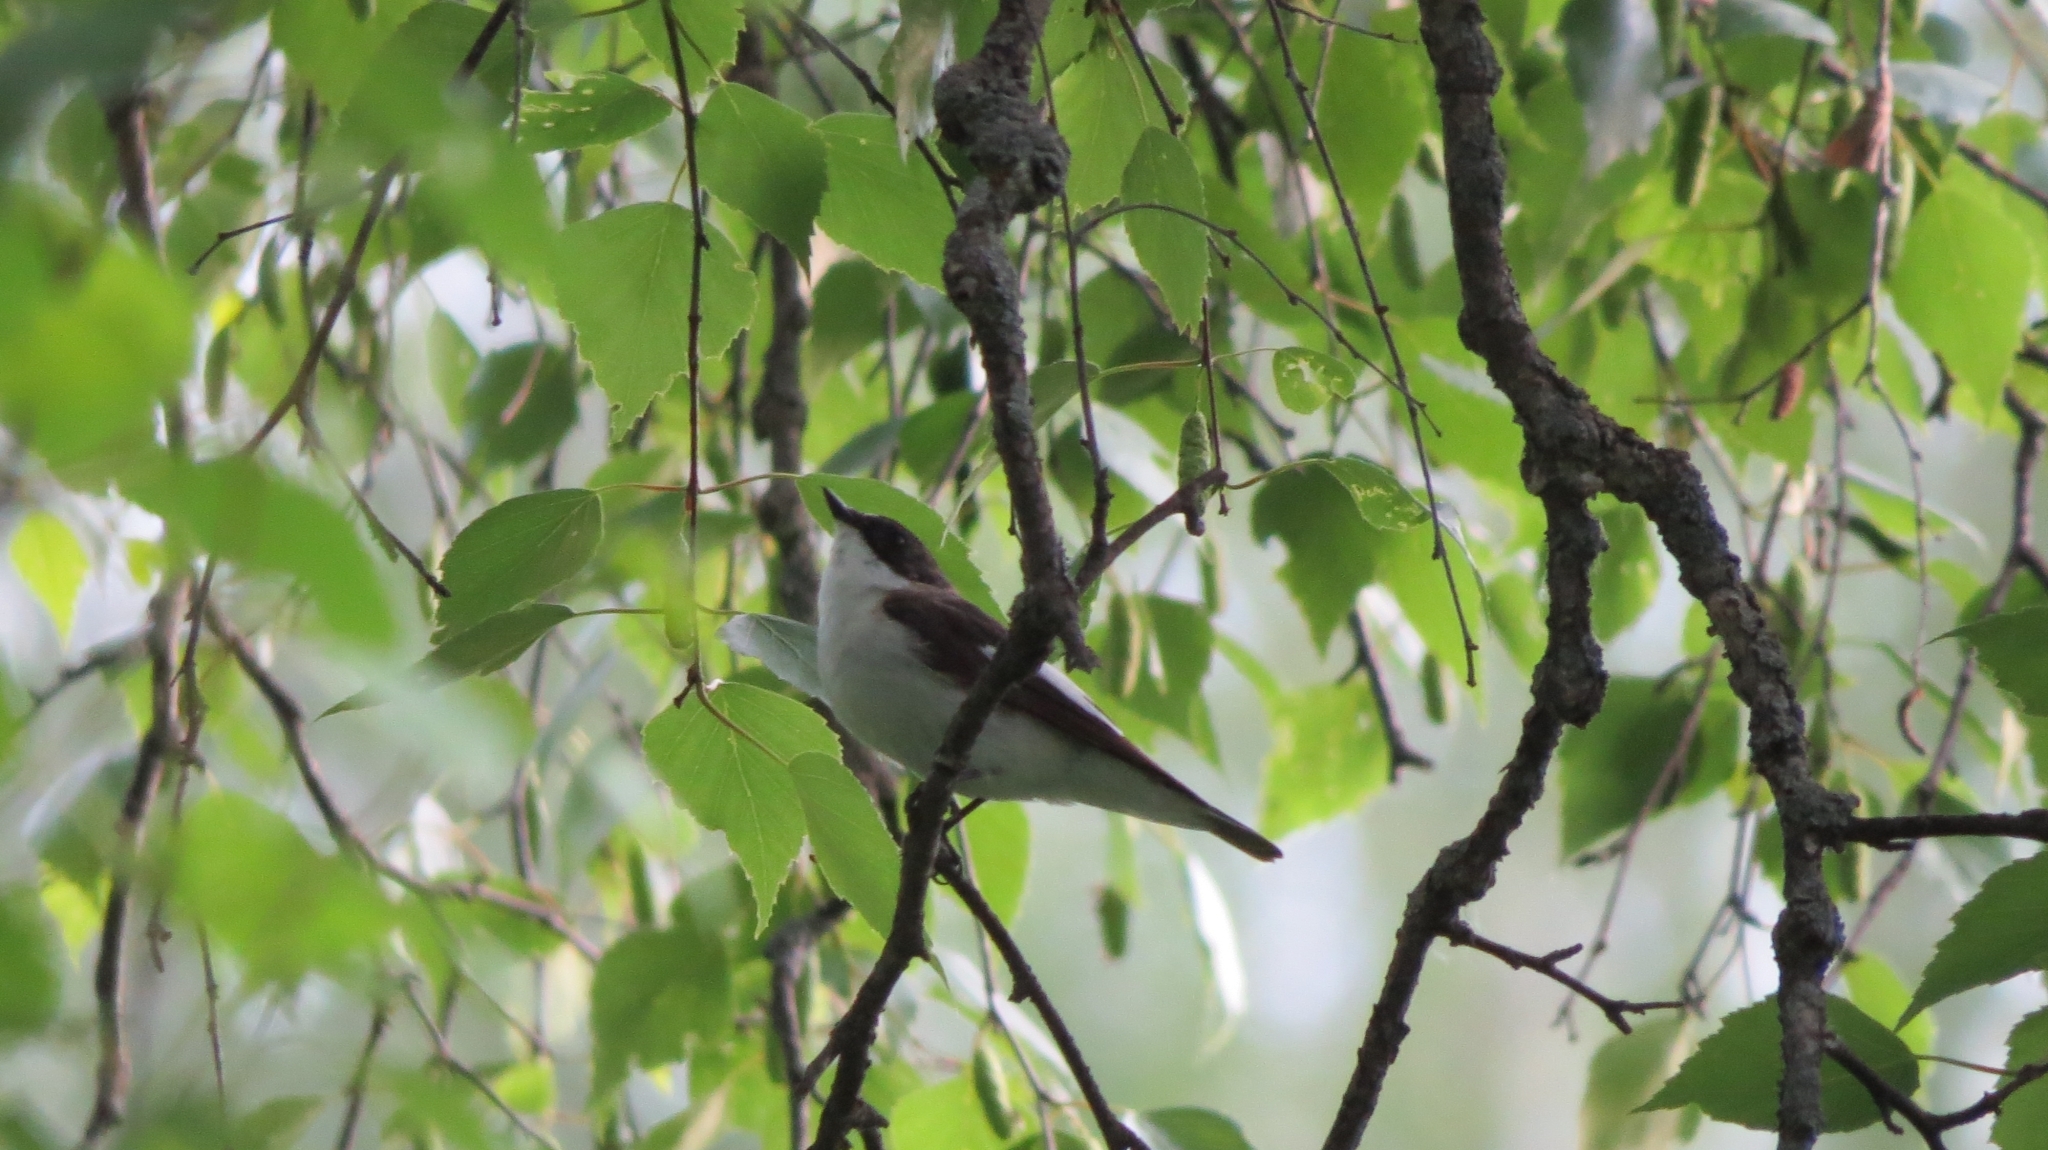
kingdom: Animalia
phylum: Chordata
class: Aves
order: Passeriformes
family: Muscicapidae
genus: Ficedula
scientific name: Ficedula hypoleuca
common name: European pied flycatcher
